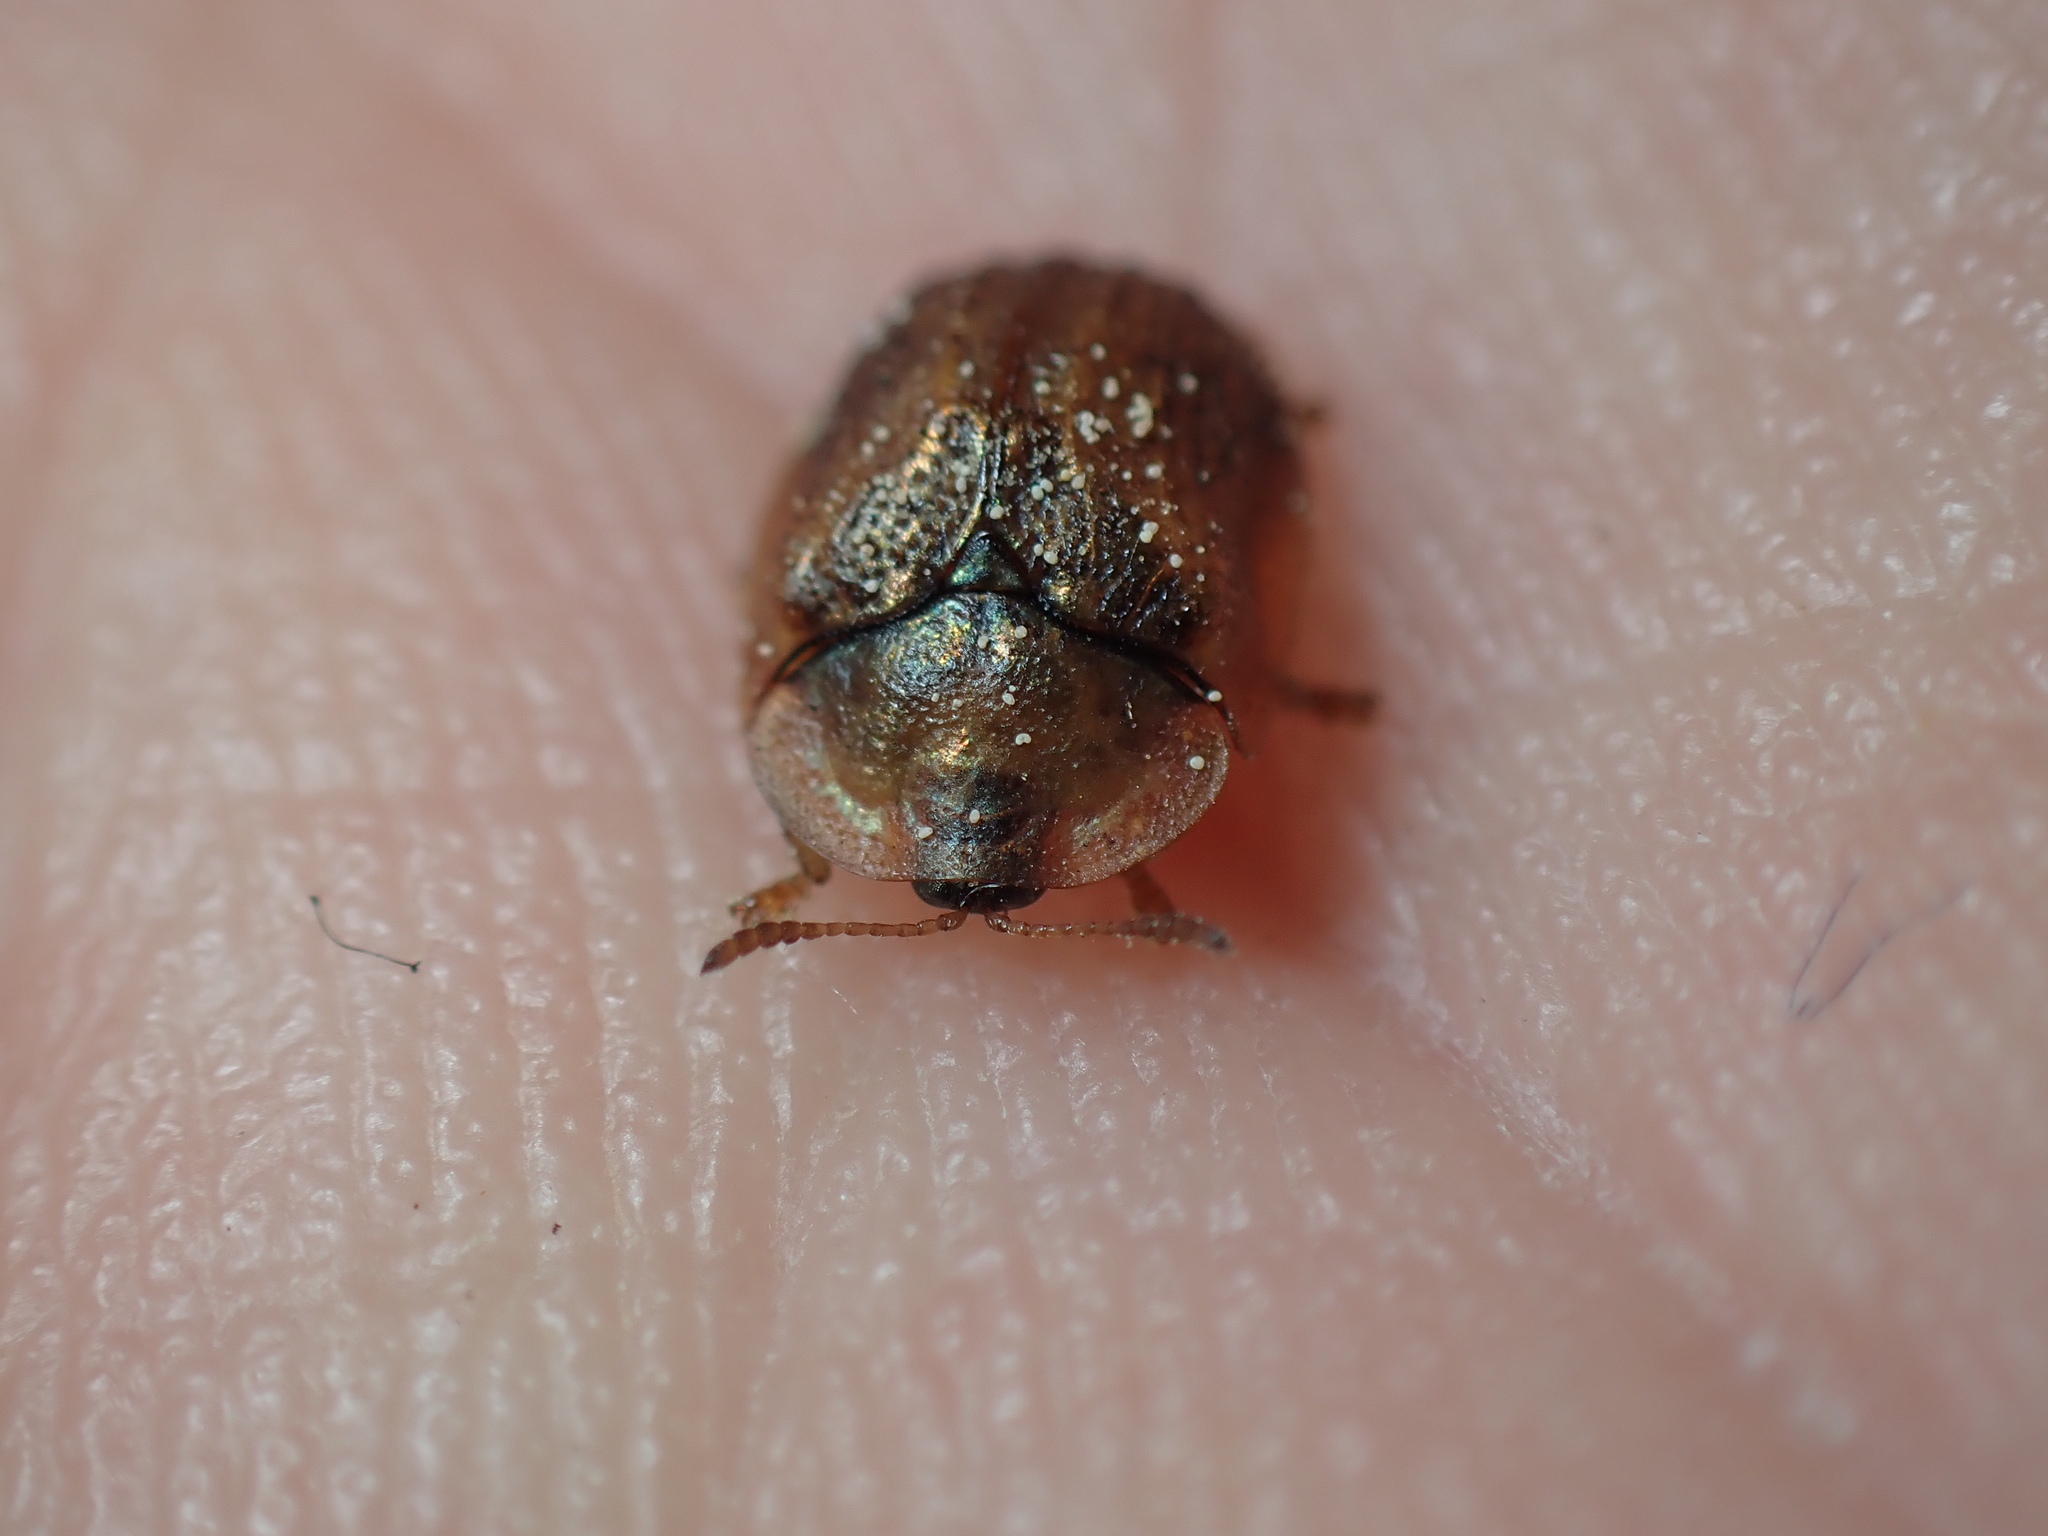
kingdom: Animalia
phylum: Arthropoda
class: Insecta
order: Coleoptera
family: Chrysomelidae
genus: Hypocassida
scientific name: Hypocassida subferruginea
